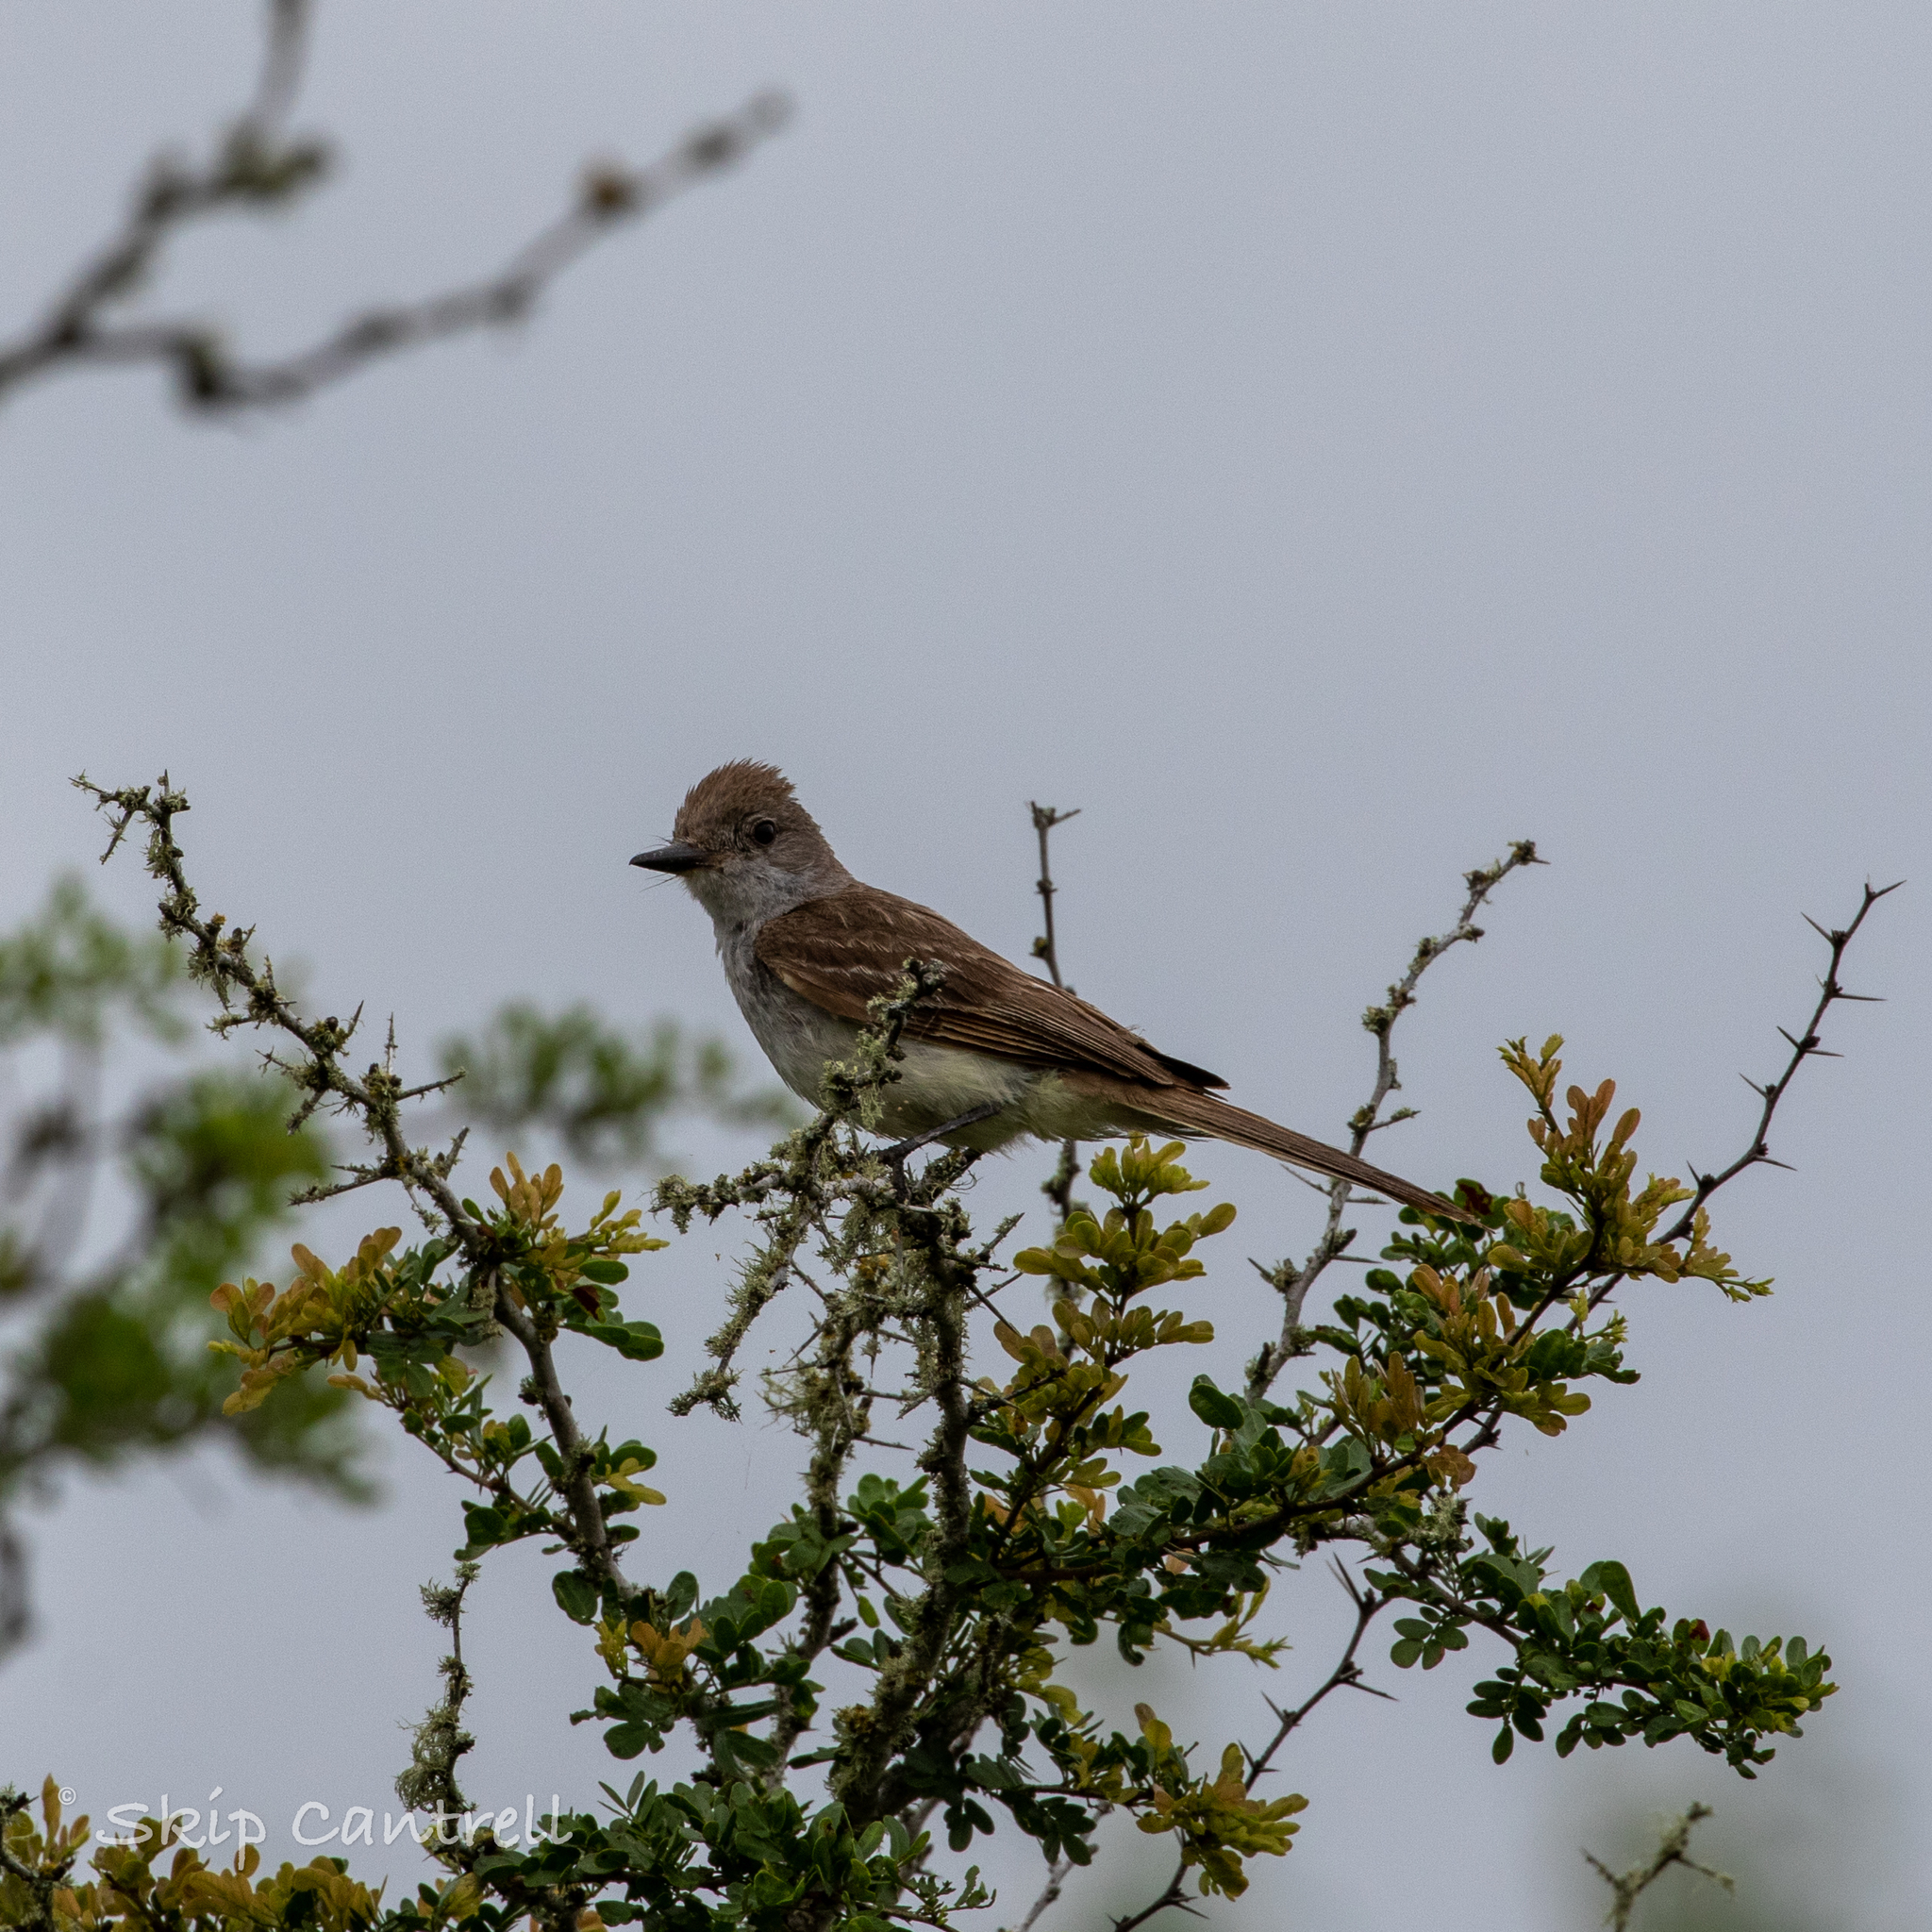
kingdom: Animalia
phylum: Chordata
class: Aves
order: Passeriformes
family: Tyrannidae
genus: Myiarchus
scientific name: Myiarchus cinerascens
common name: Ash-throated flycatcher
